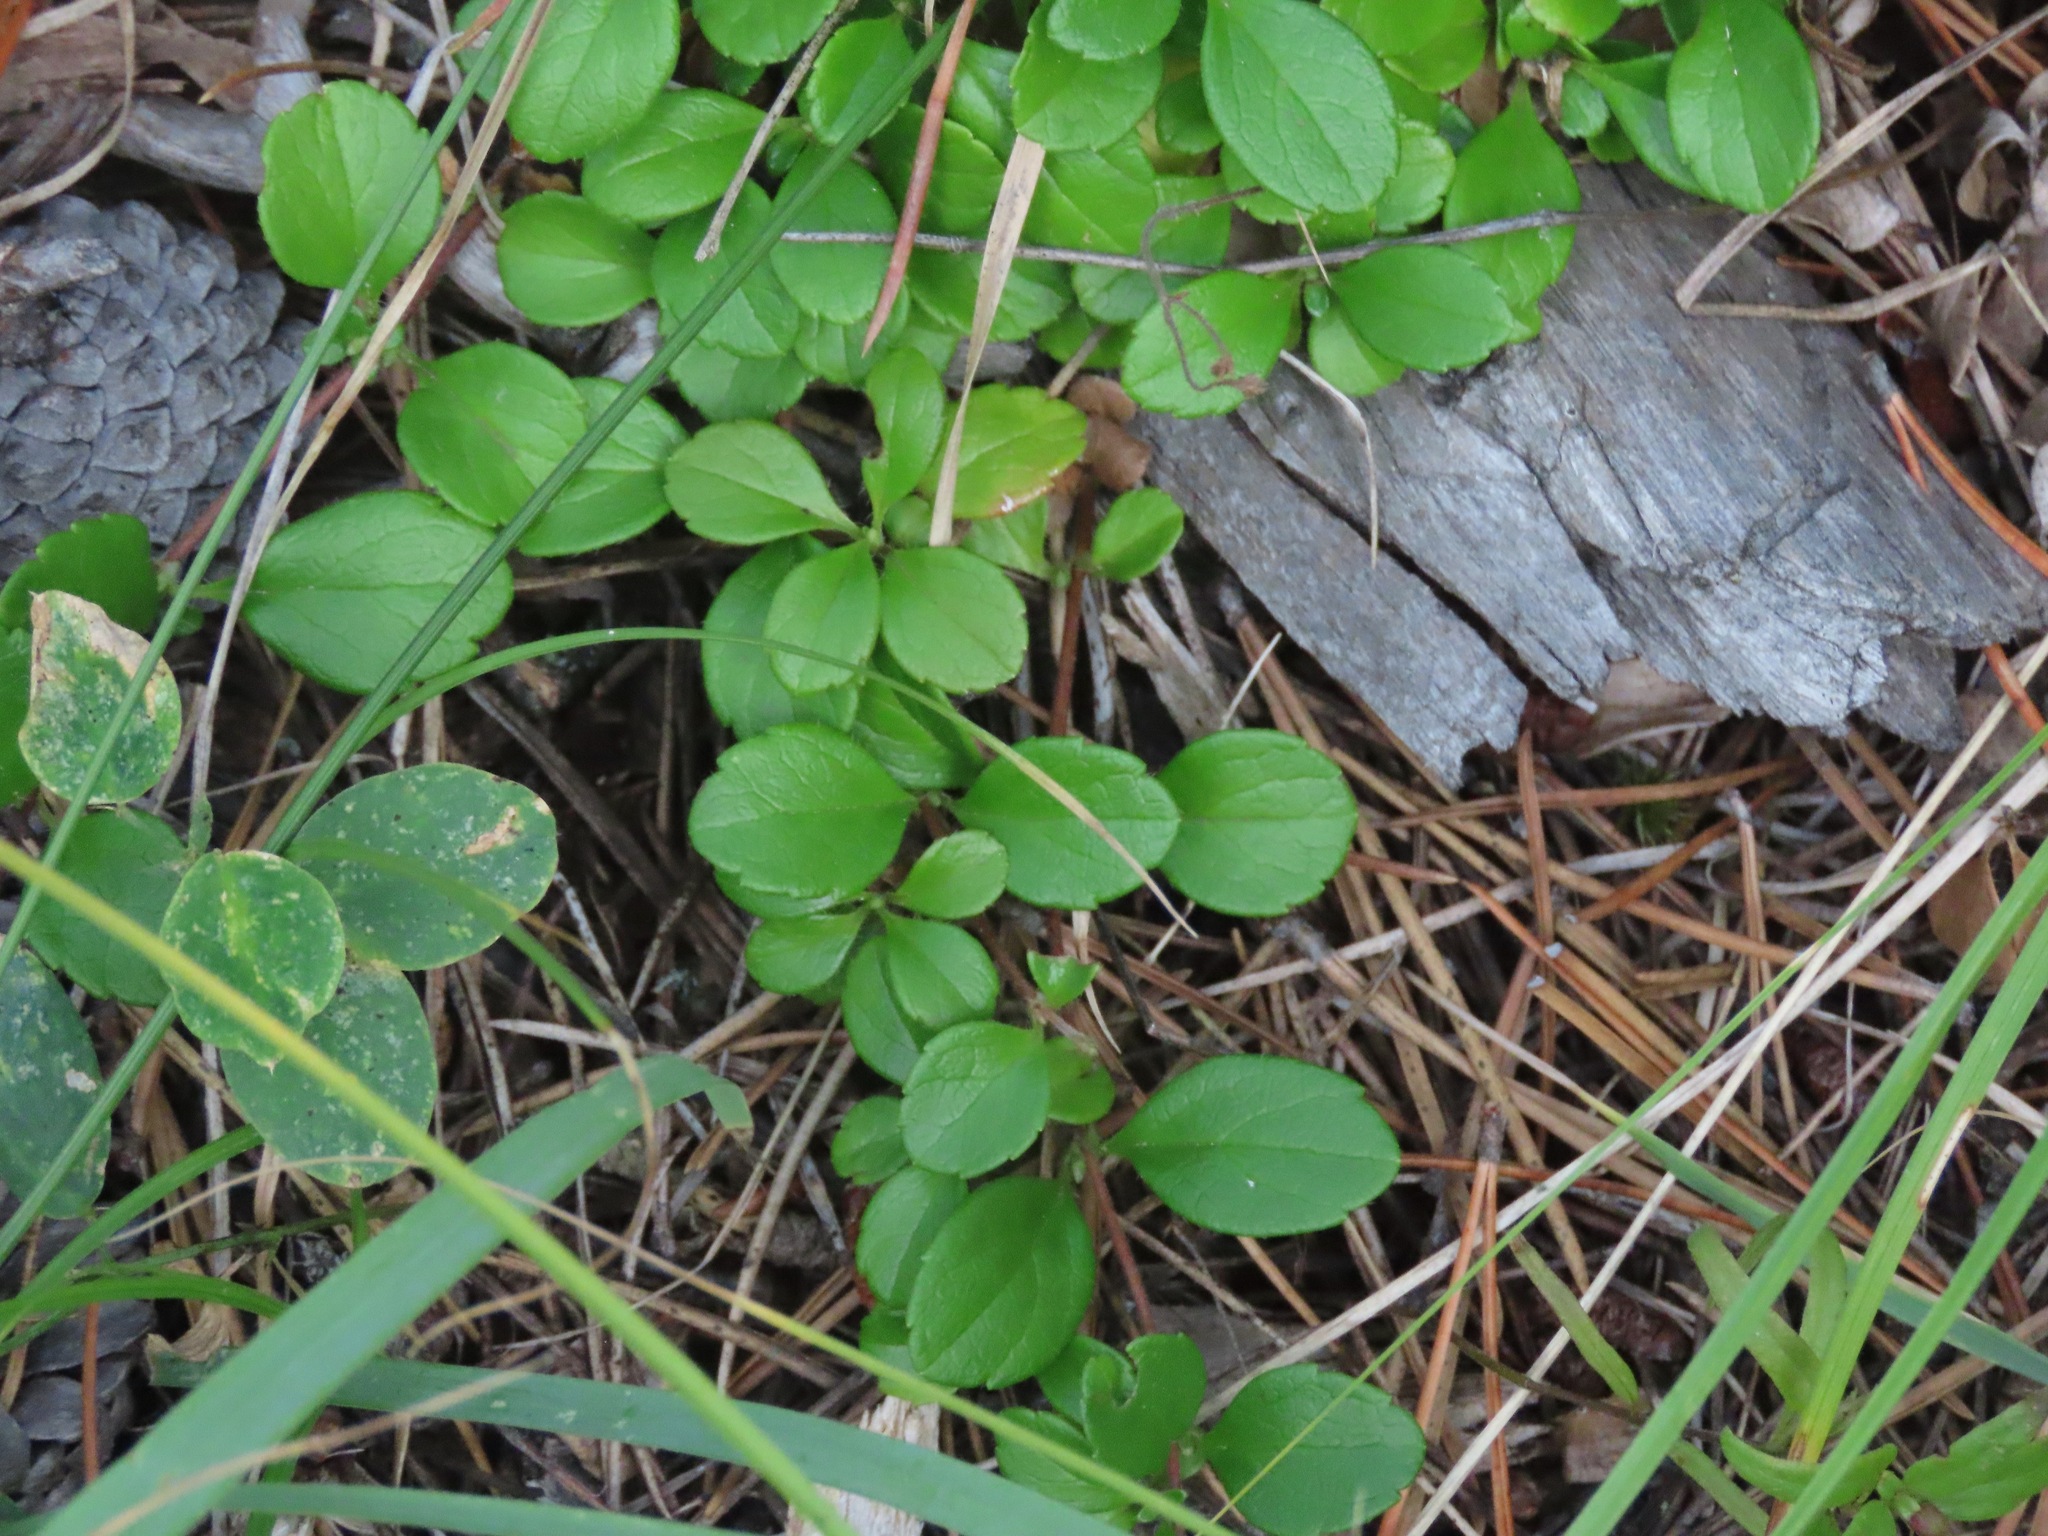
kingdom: Plantae
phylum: Tracheophyta
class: Magnoliopsida
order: Dipsacales
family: Caprifoliaceae
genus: Linnaea
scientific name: Linnaea borealis
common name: Twinflower
